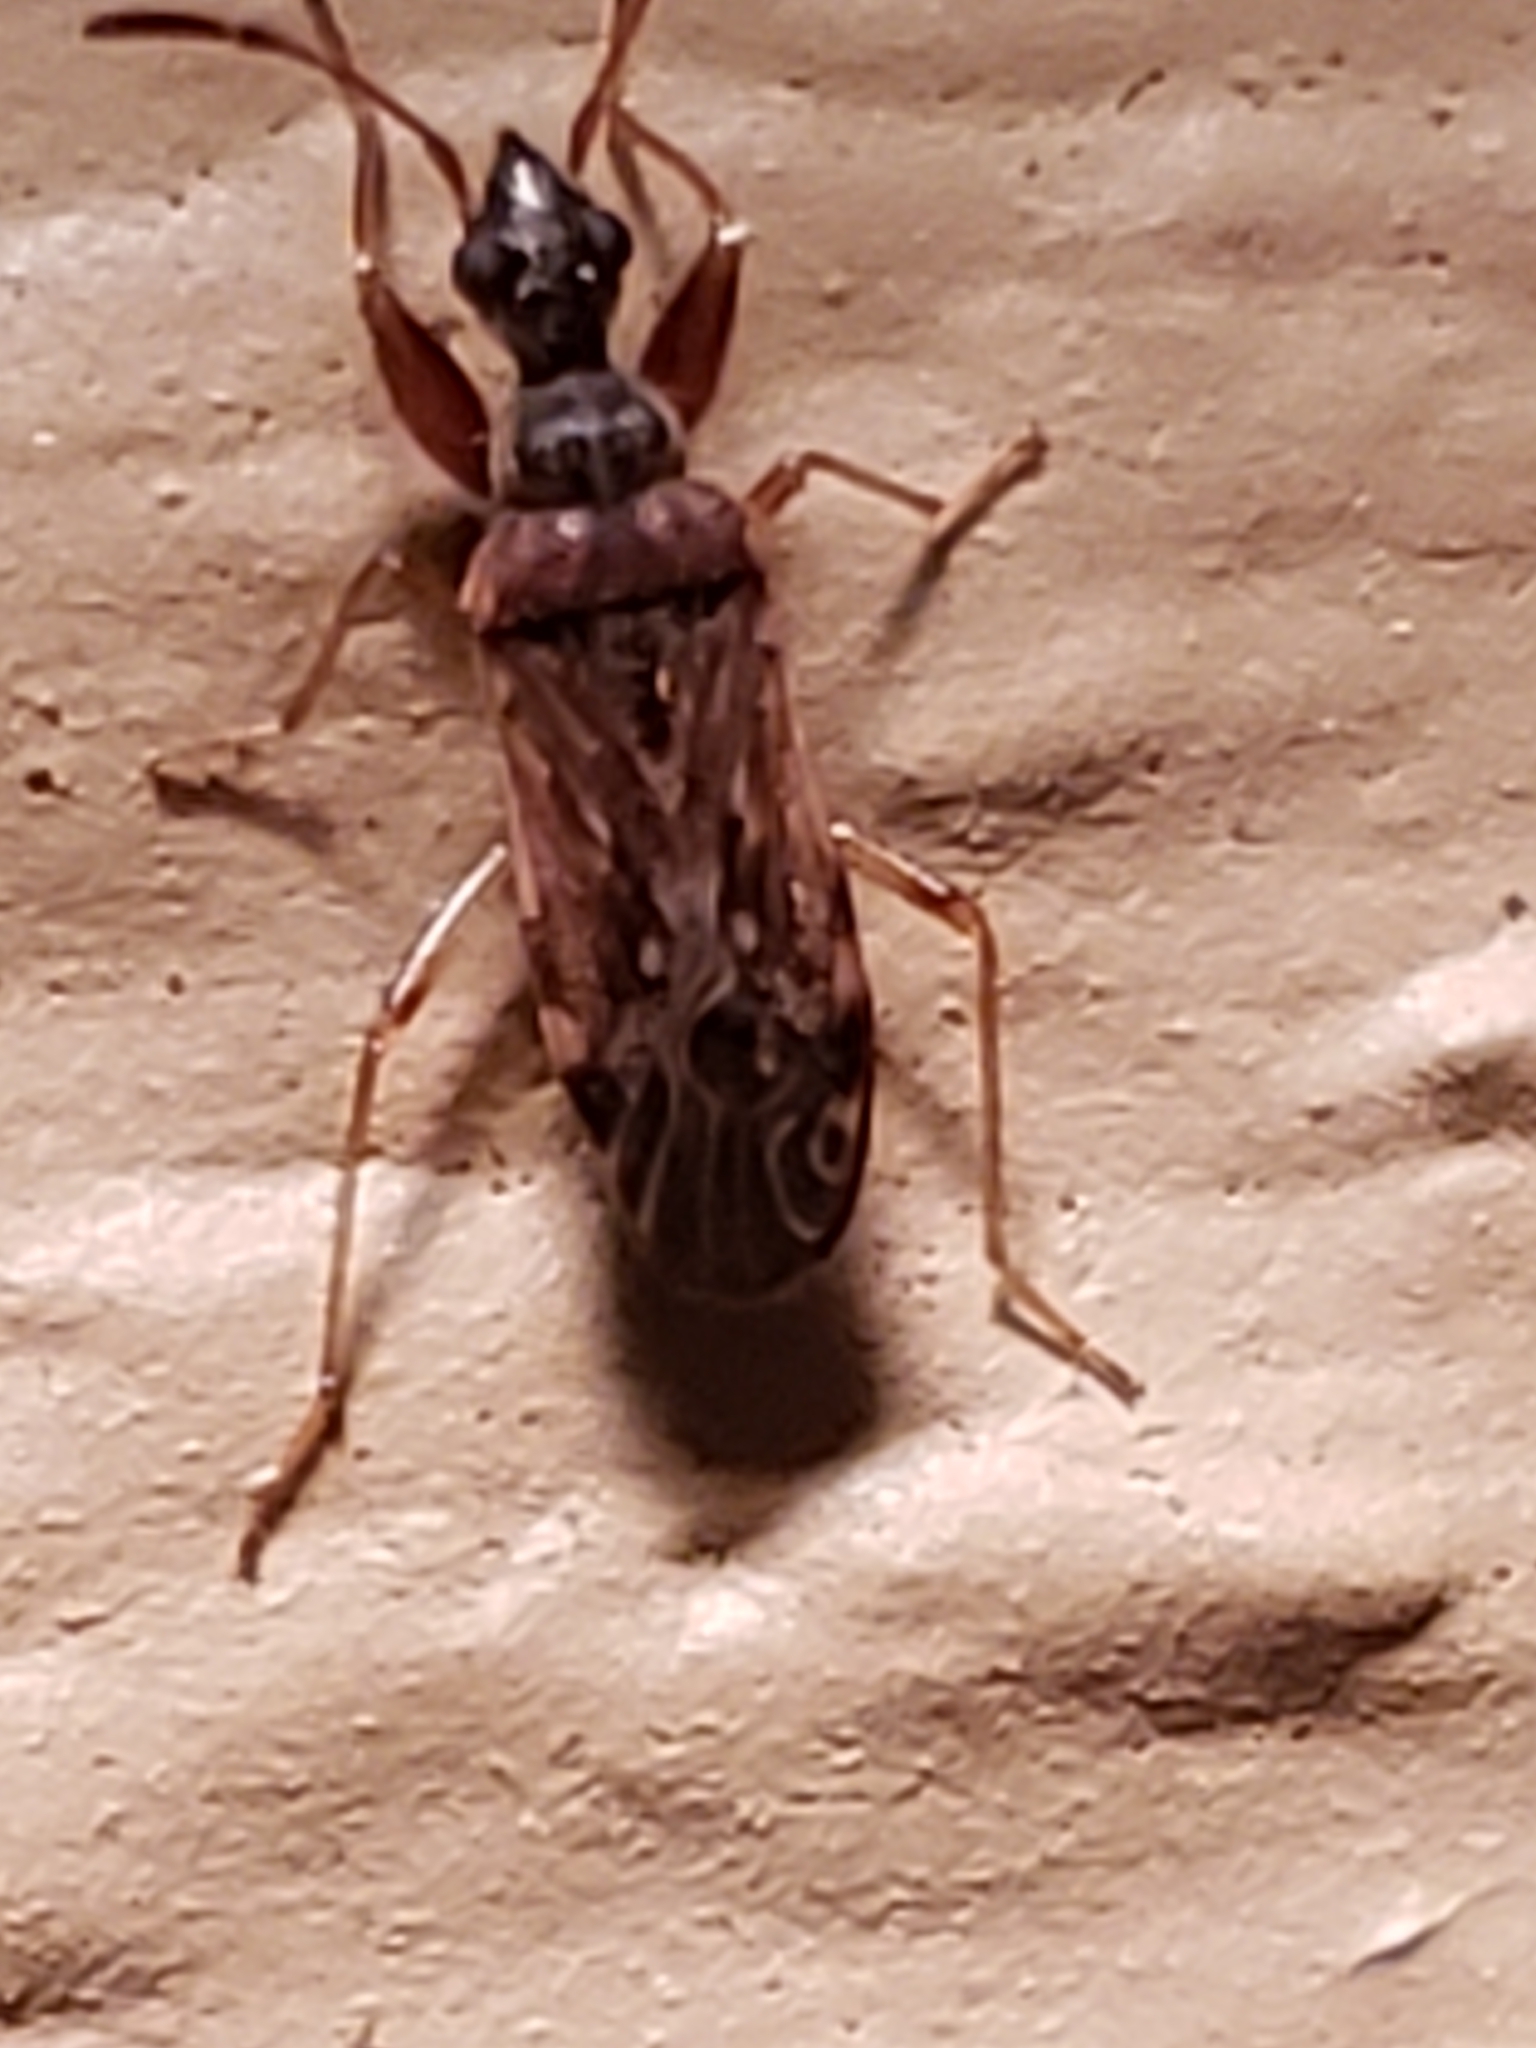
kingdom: Animalia
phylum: Arthropoda
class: Insecta
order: Hemiptera
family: Rhyparochromidae
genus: Heraeus
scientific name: Heraeus plebejus
